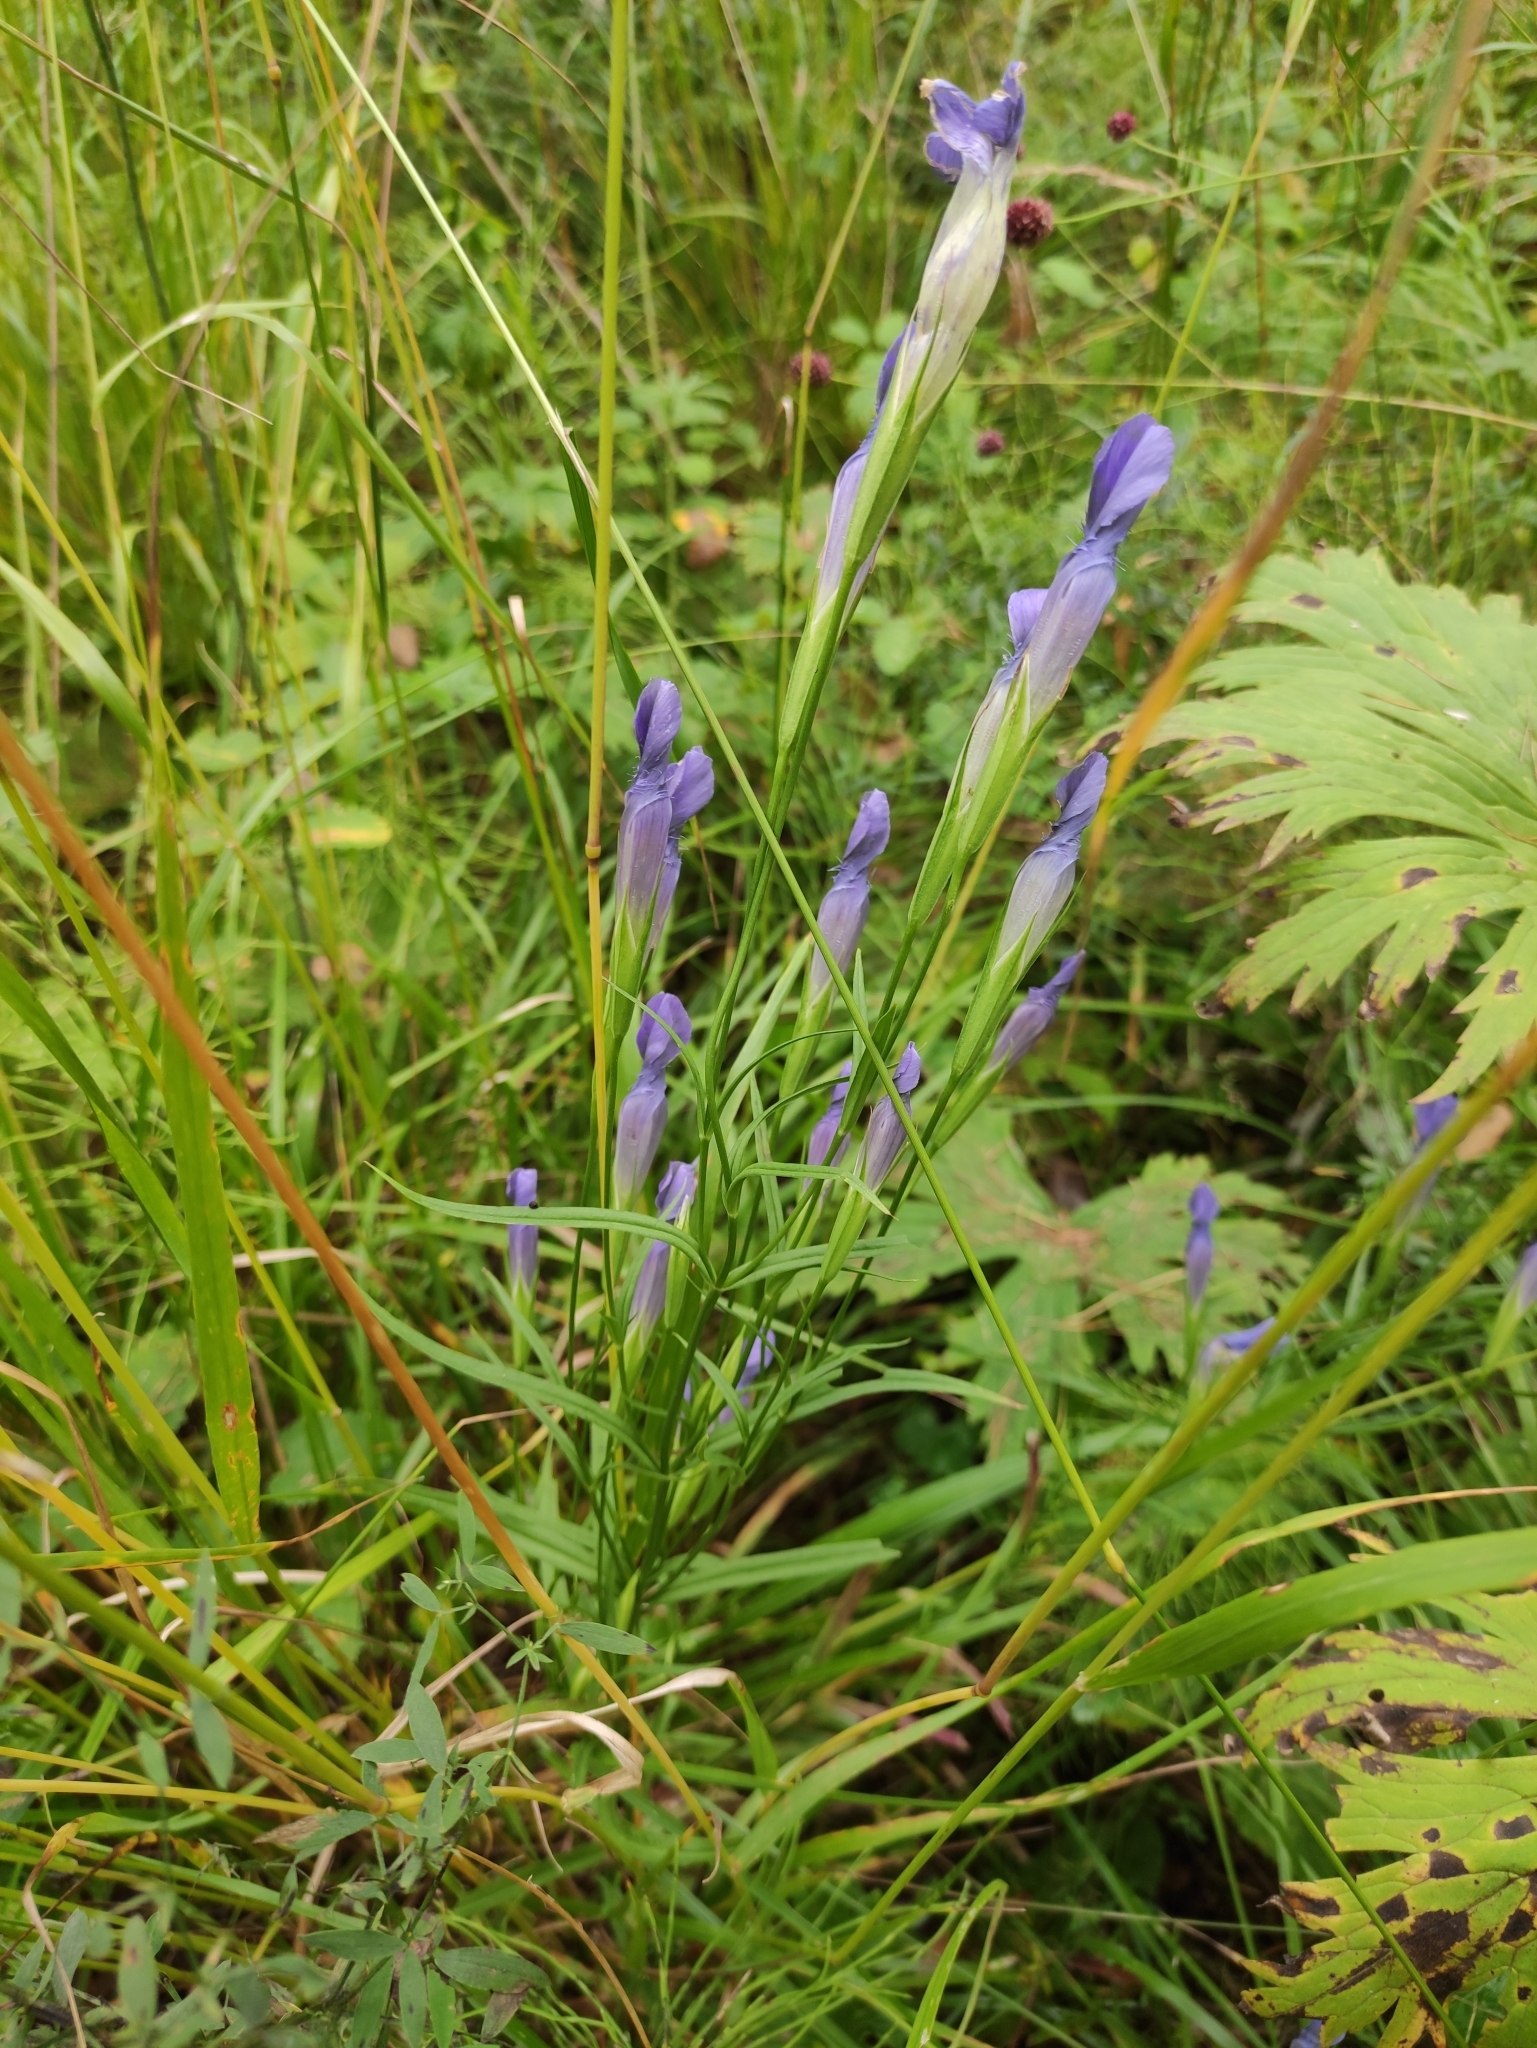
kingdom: Plantae
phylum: Tracheophyta
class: Magnoliopsida
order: Gentianales
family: Gentianaceae
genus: Gentianopsis
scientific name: Gentianopsis barbata
